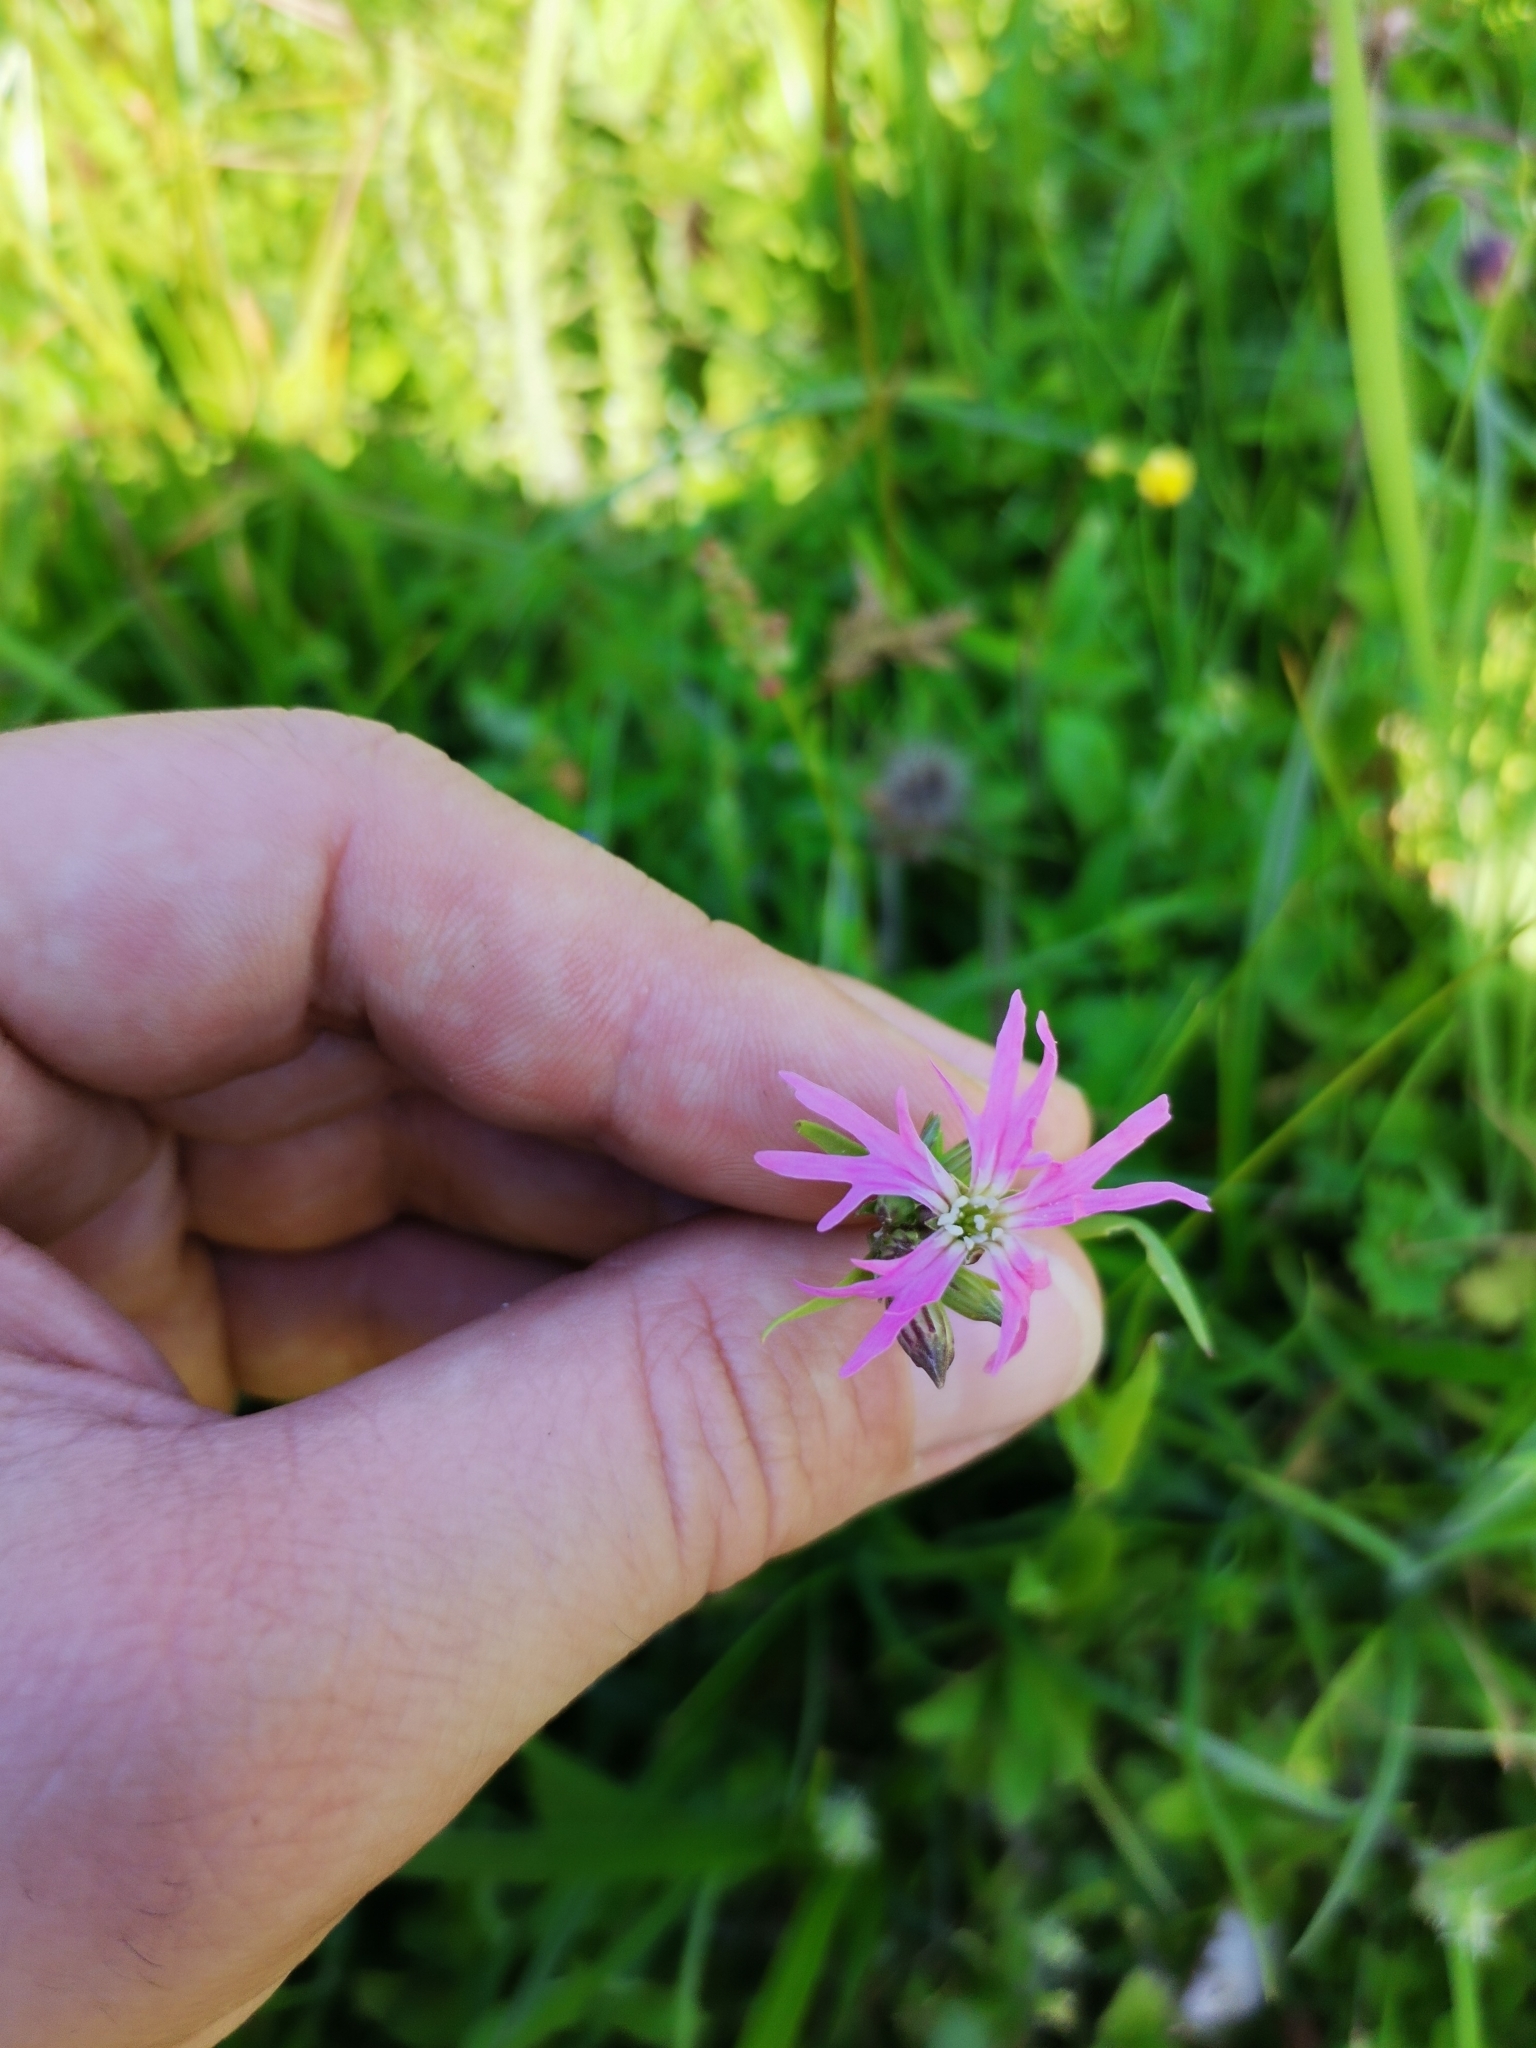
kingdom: Plantae
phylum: Tracheophyta
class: Magnoliopsida
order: Caryophyllales
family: Caryophyllaceae
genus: Silene
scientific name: Silene flos-cuculi
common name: Ragged-robin
